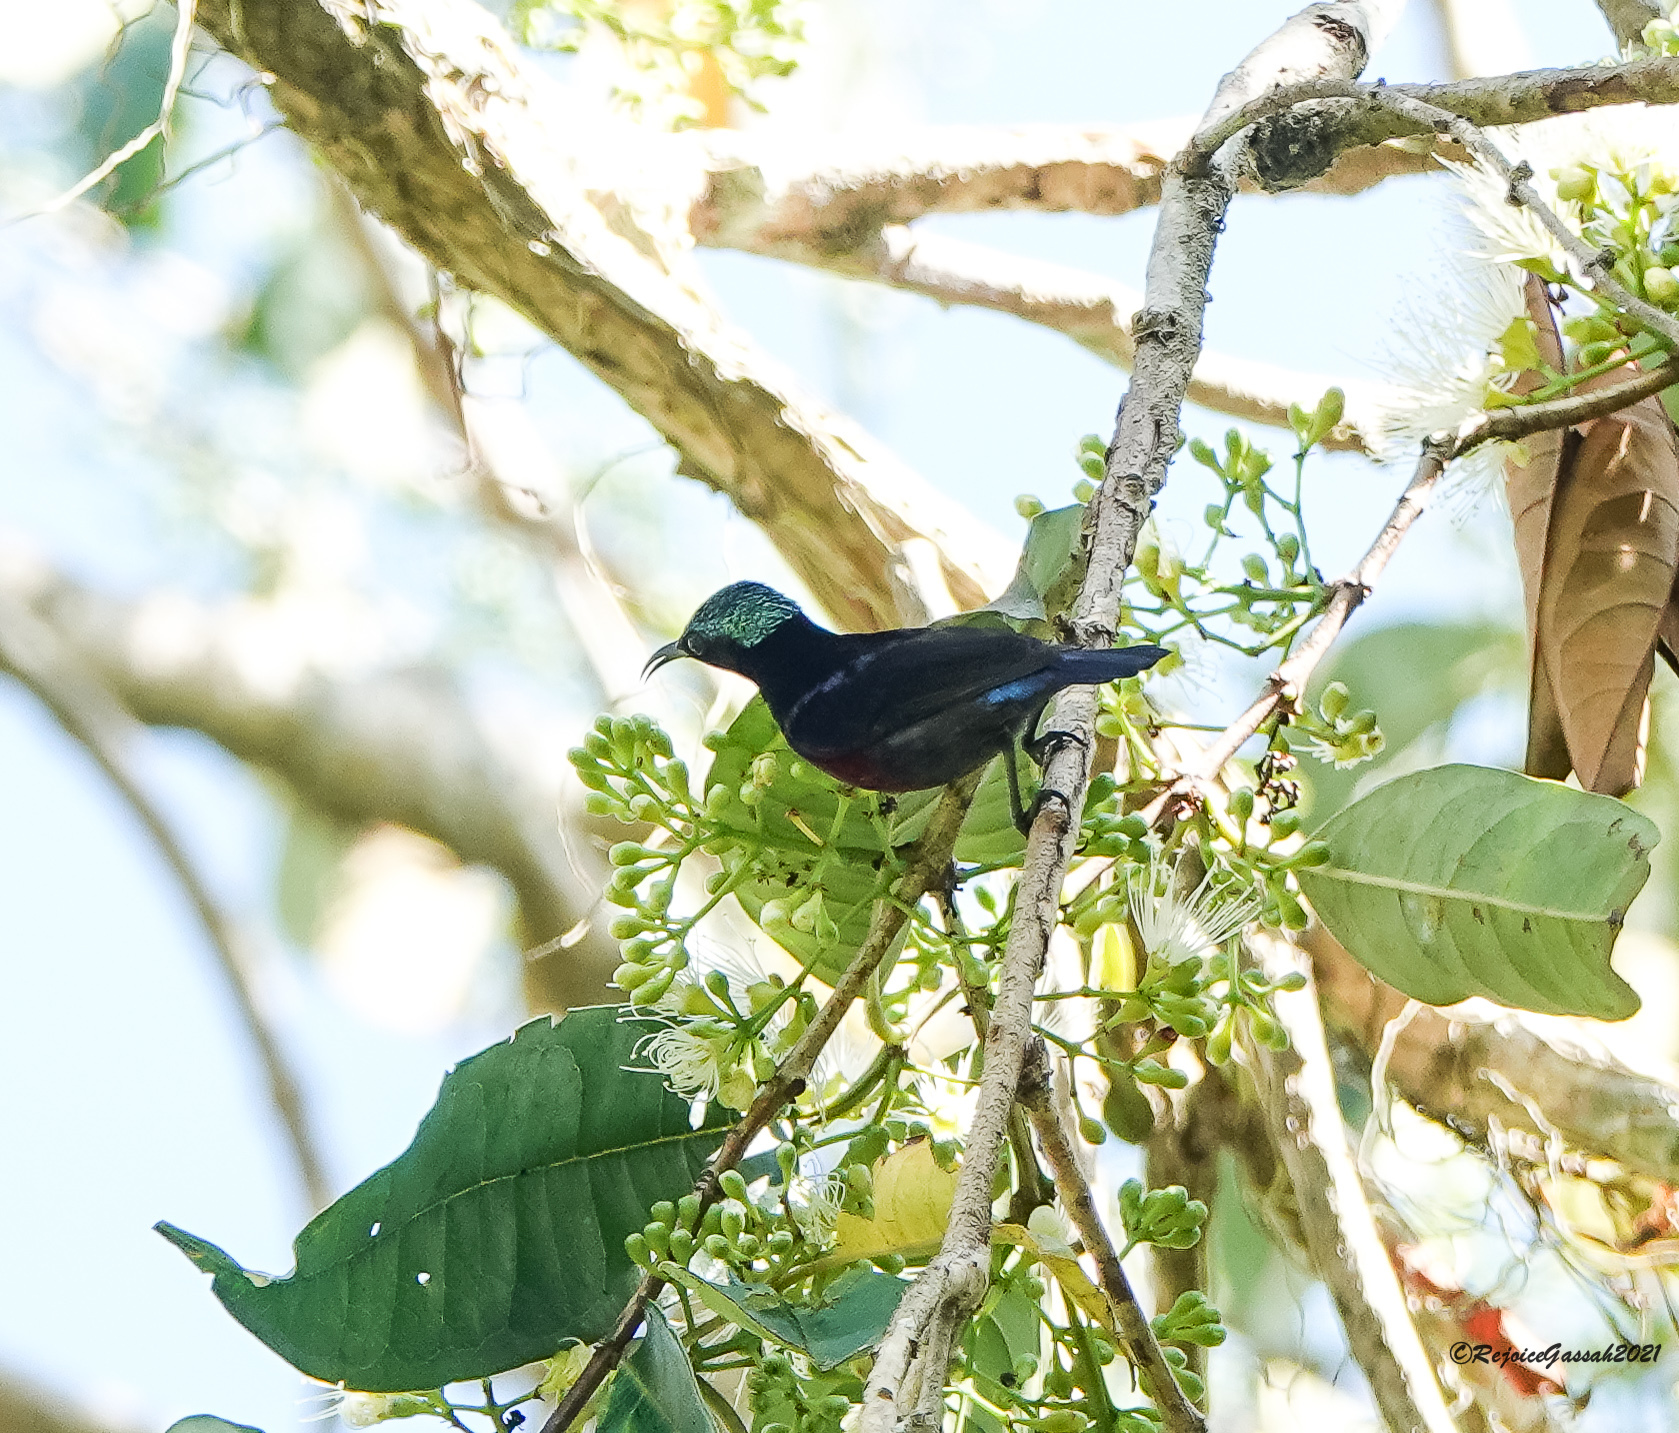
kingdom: Animalia
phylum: Chordata
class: Aves
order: Passeriformes
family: Nectariniidae
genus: Leptocoma
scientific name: Leptocoma brasiliana
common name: Van hasselt's sunbird
